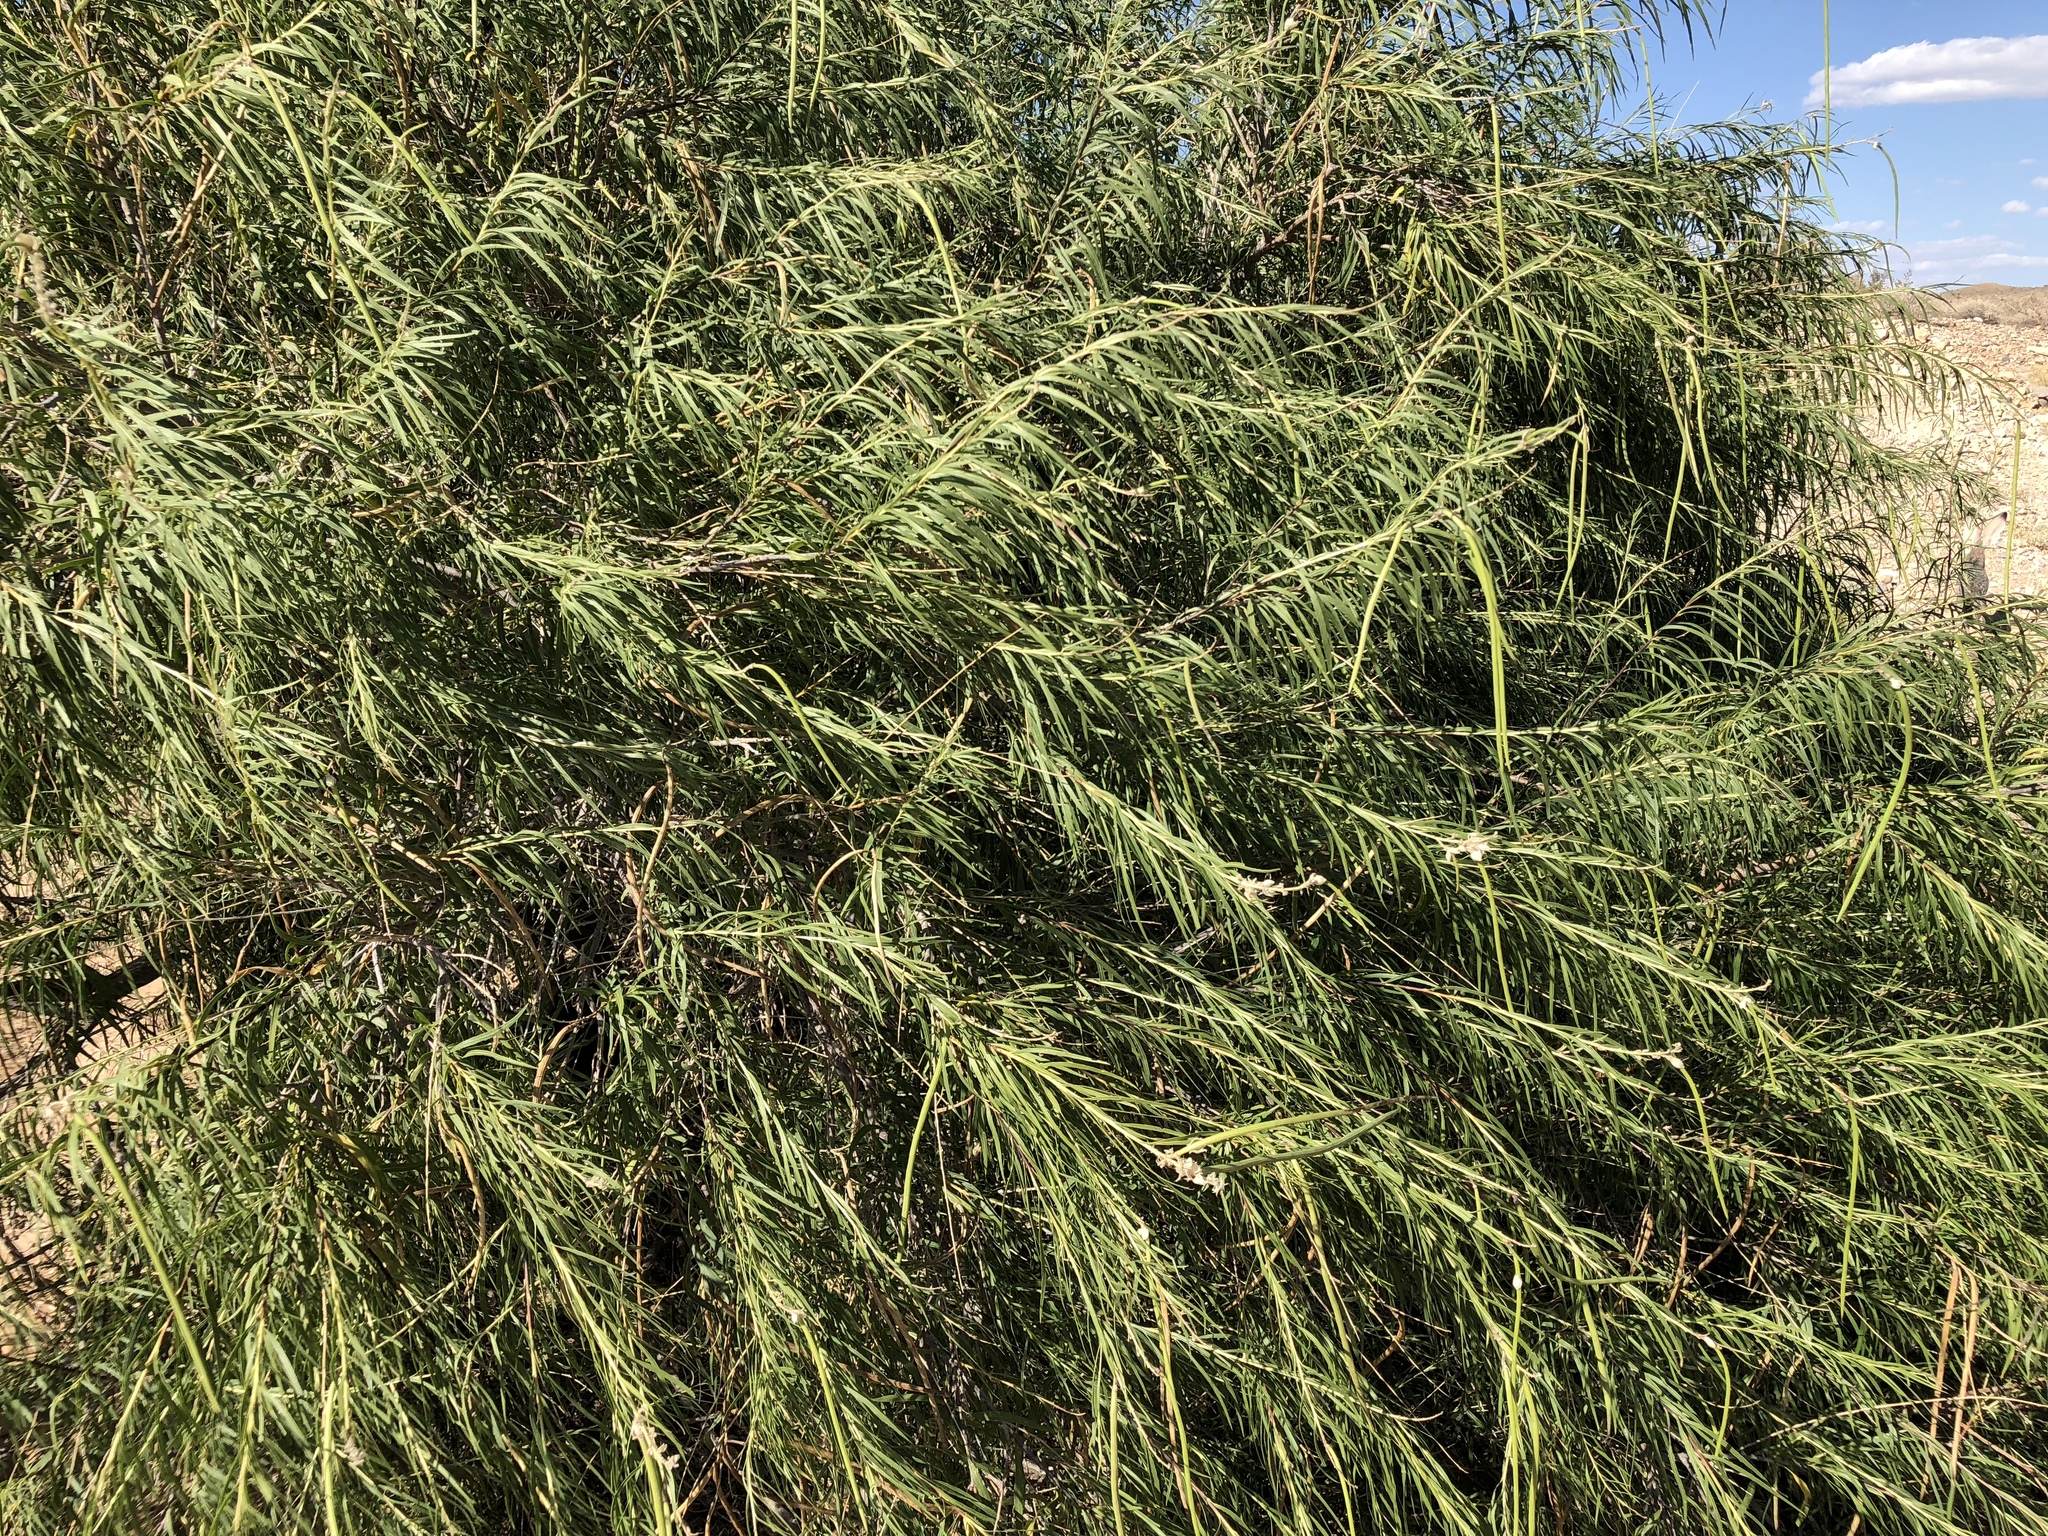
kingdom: Plantae
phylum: Tracheophyta
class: Magnoliopsida
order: Lamiales
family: Bignoniaceae
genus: Chilopsis
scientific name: Chilopsis linearis
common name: Desert-willow
